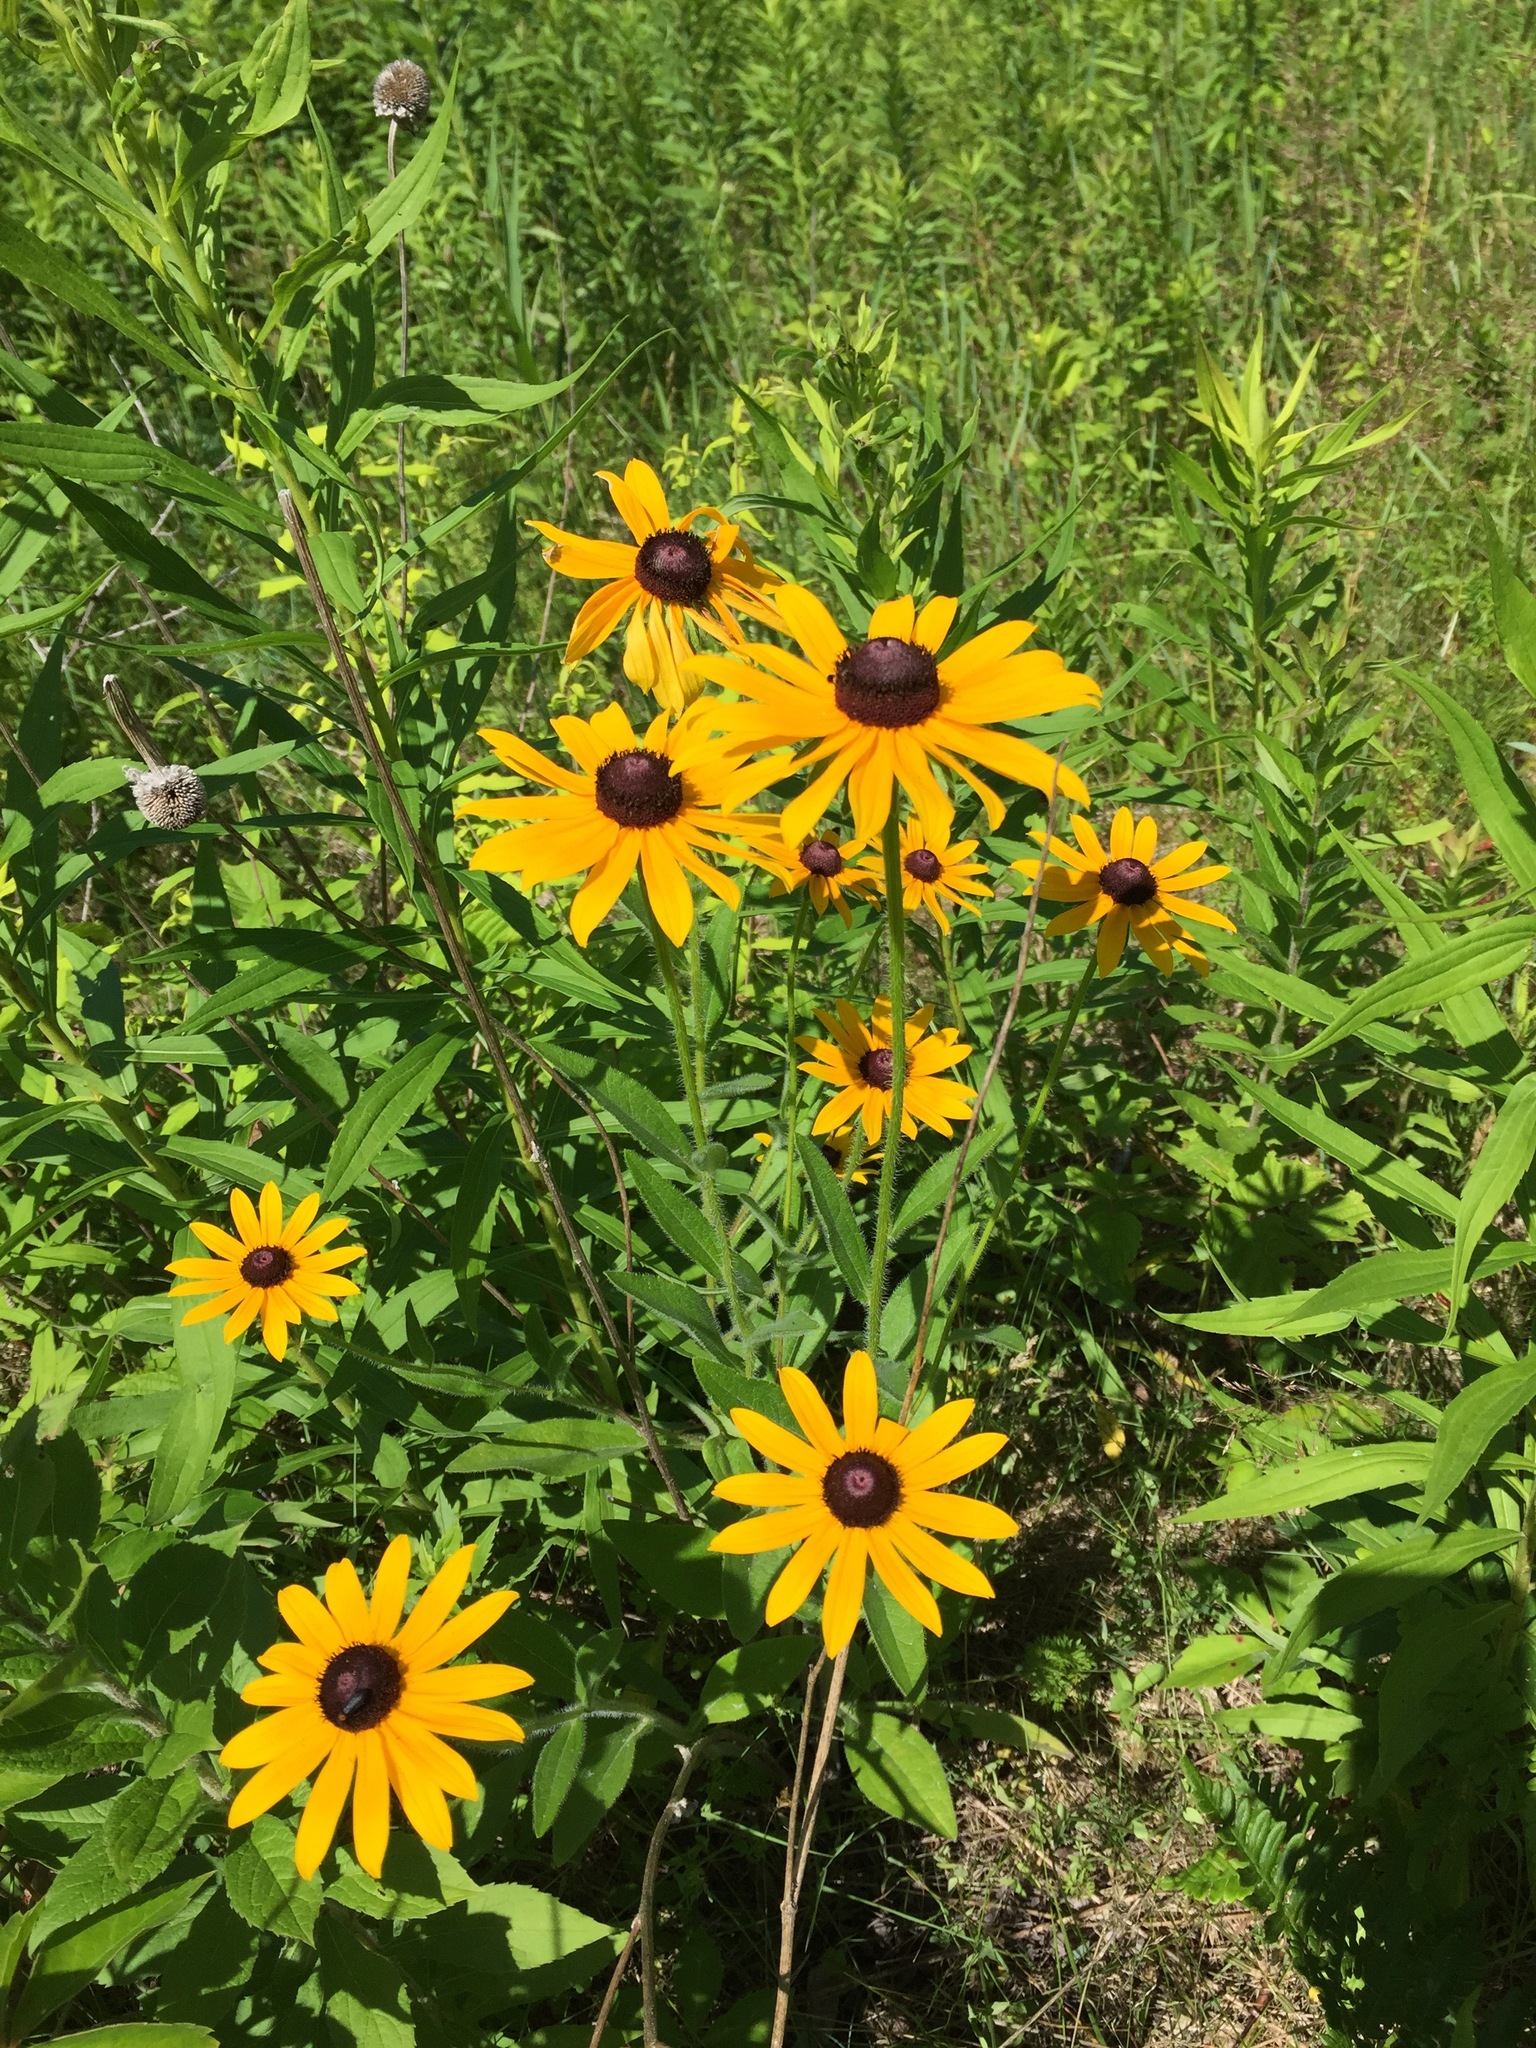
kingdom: Plantae
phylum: Tracheophyta
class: Magnoliopsida
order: Asterales
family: Asteraceae
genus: Rudbeckia
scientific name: Rudbeckia hirta
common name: Black-eyed-susan
